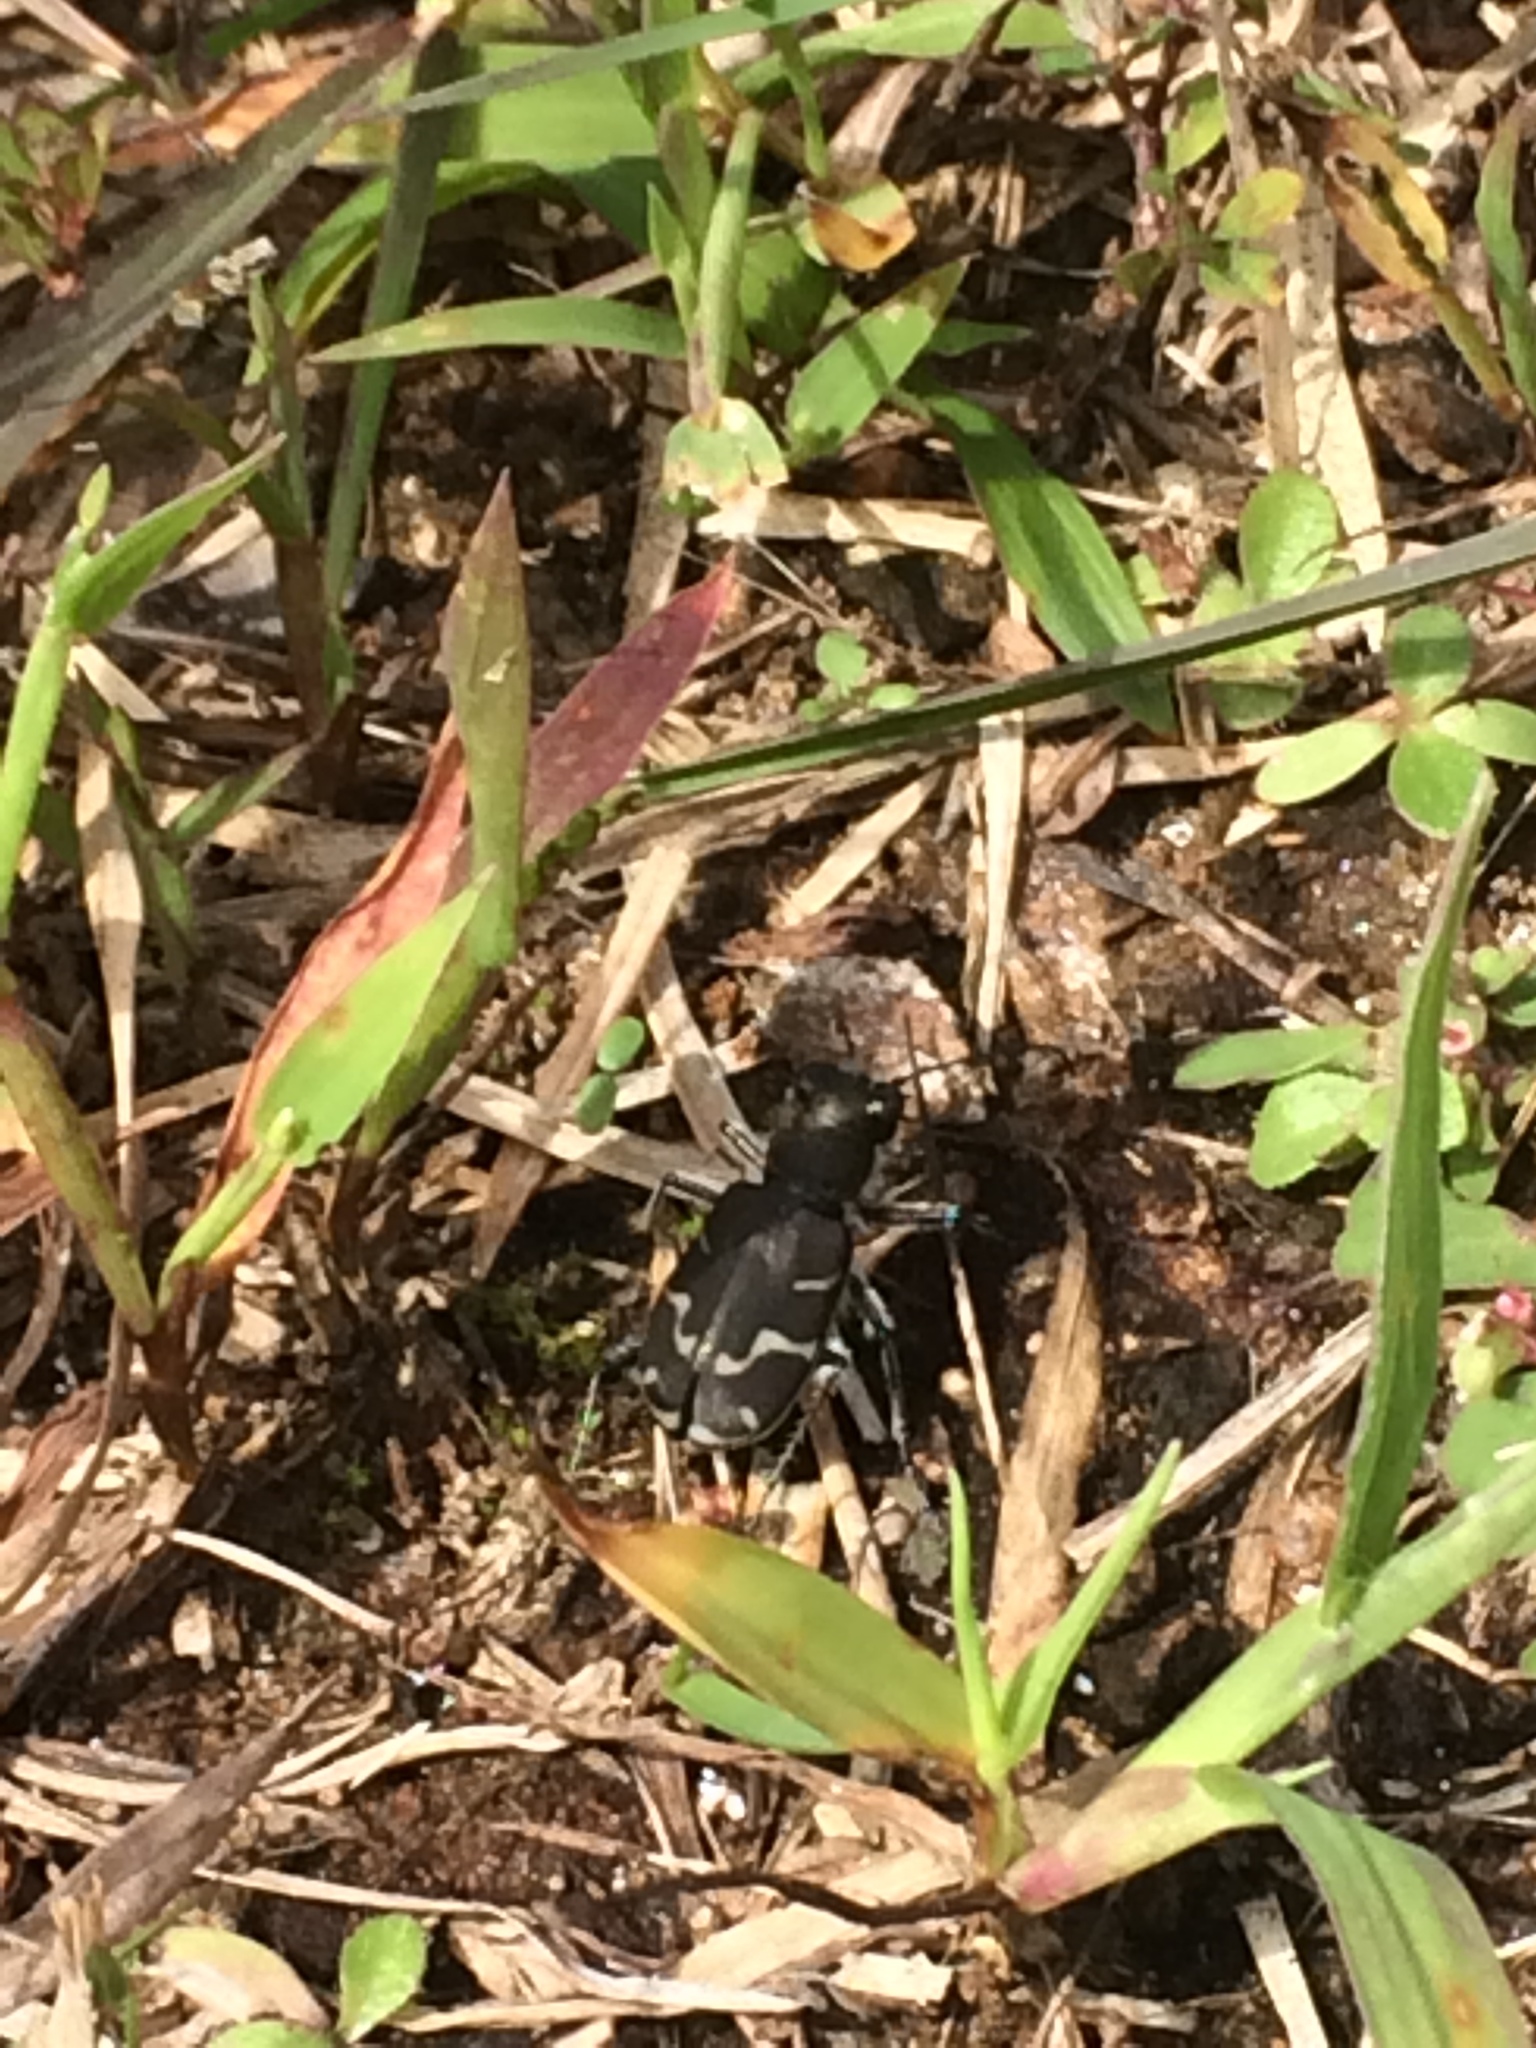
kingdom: Animalia
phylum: Arthropoda
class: Insecta
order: Coleoptera
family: Carabidae
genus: Cicindela
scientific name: Cicindela tranquebarica
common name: Oblique-lined tiger beetle
